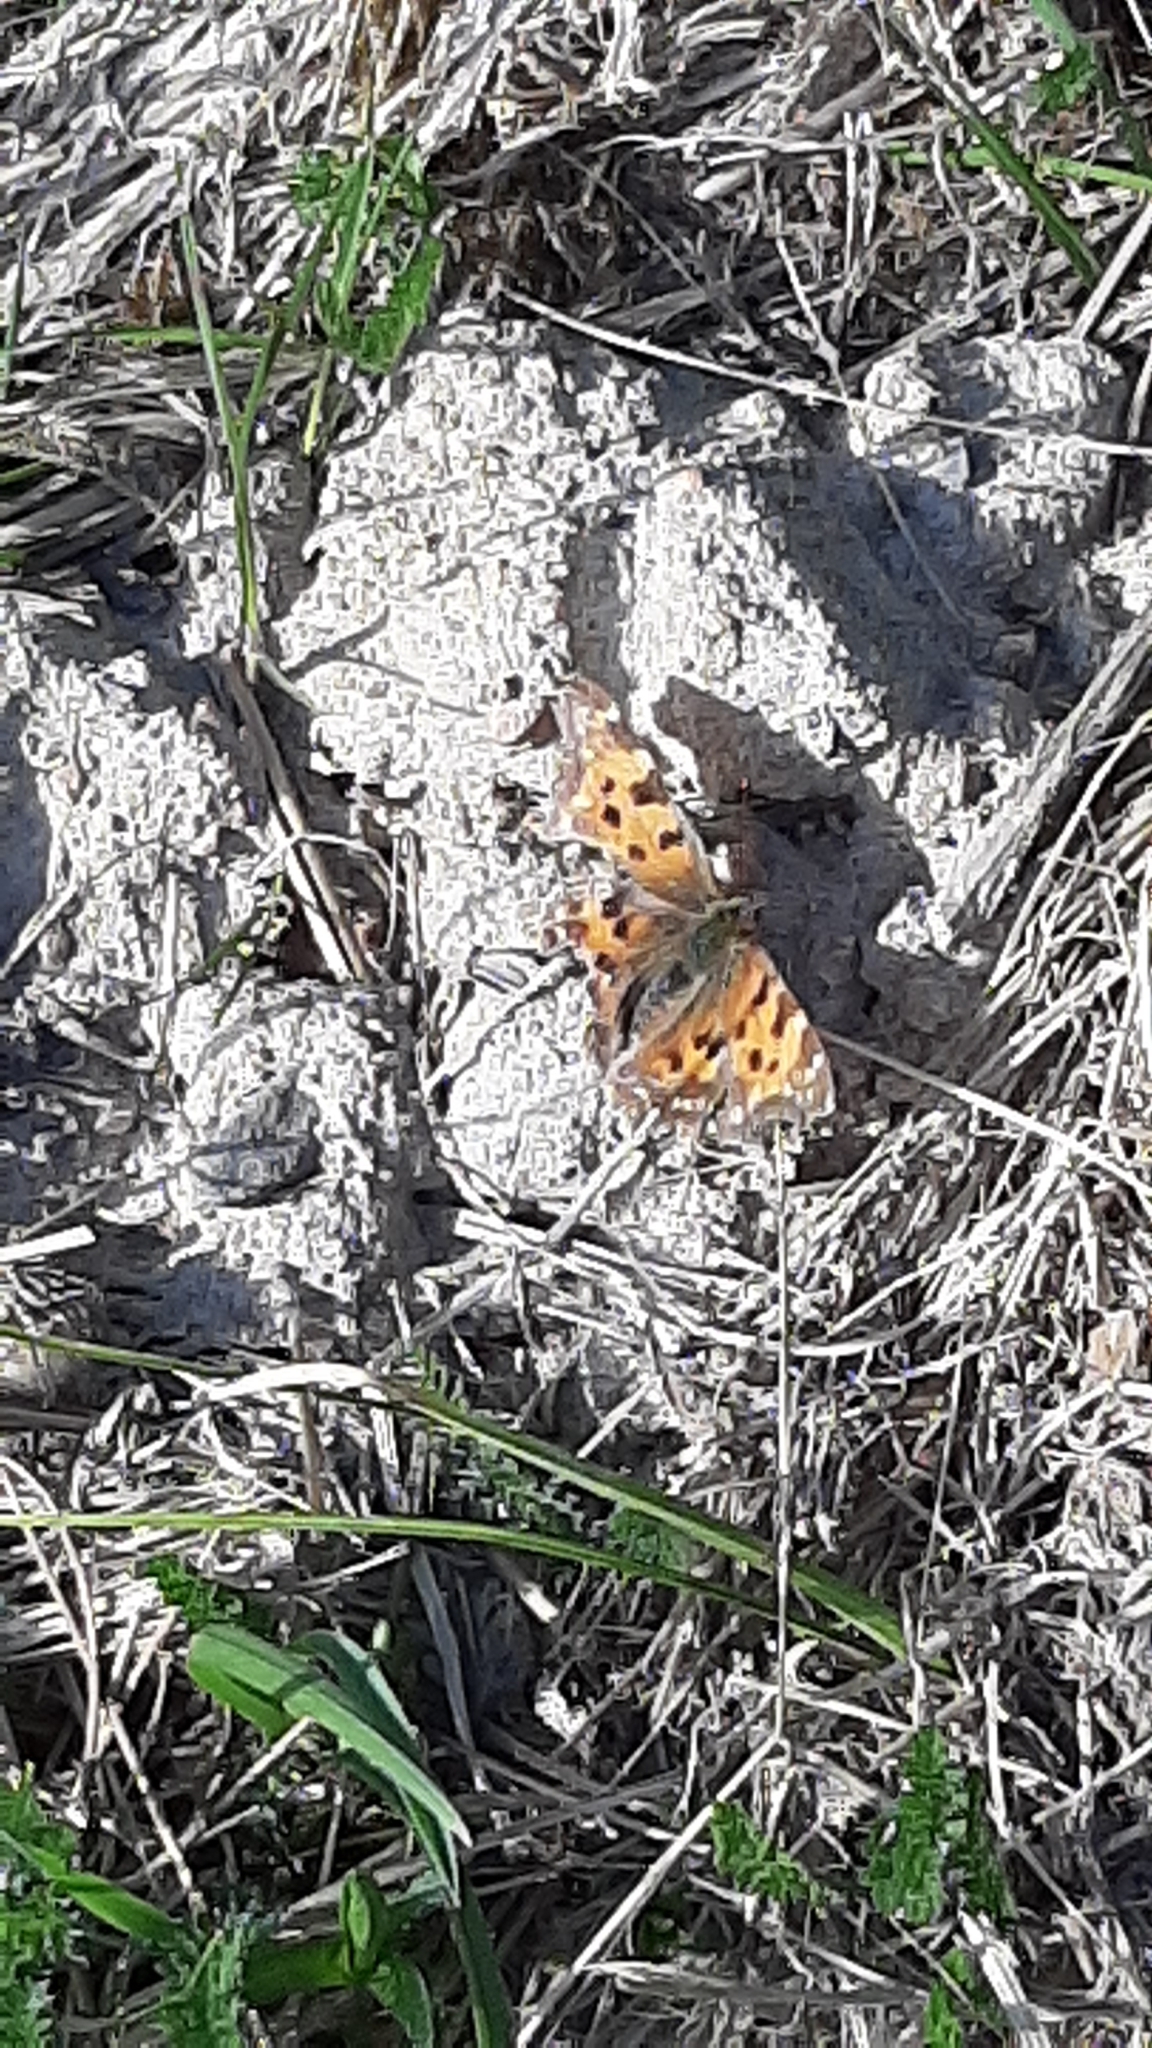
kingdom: Animalia
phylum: Arthropoda
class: Insecta
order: Lepidoptera
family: Nymphalidae
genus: Polygonia
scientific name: Polygonia c-album
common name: Comma
